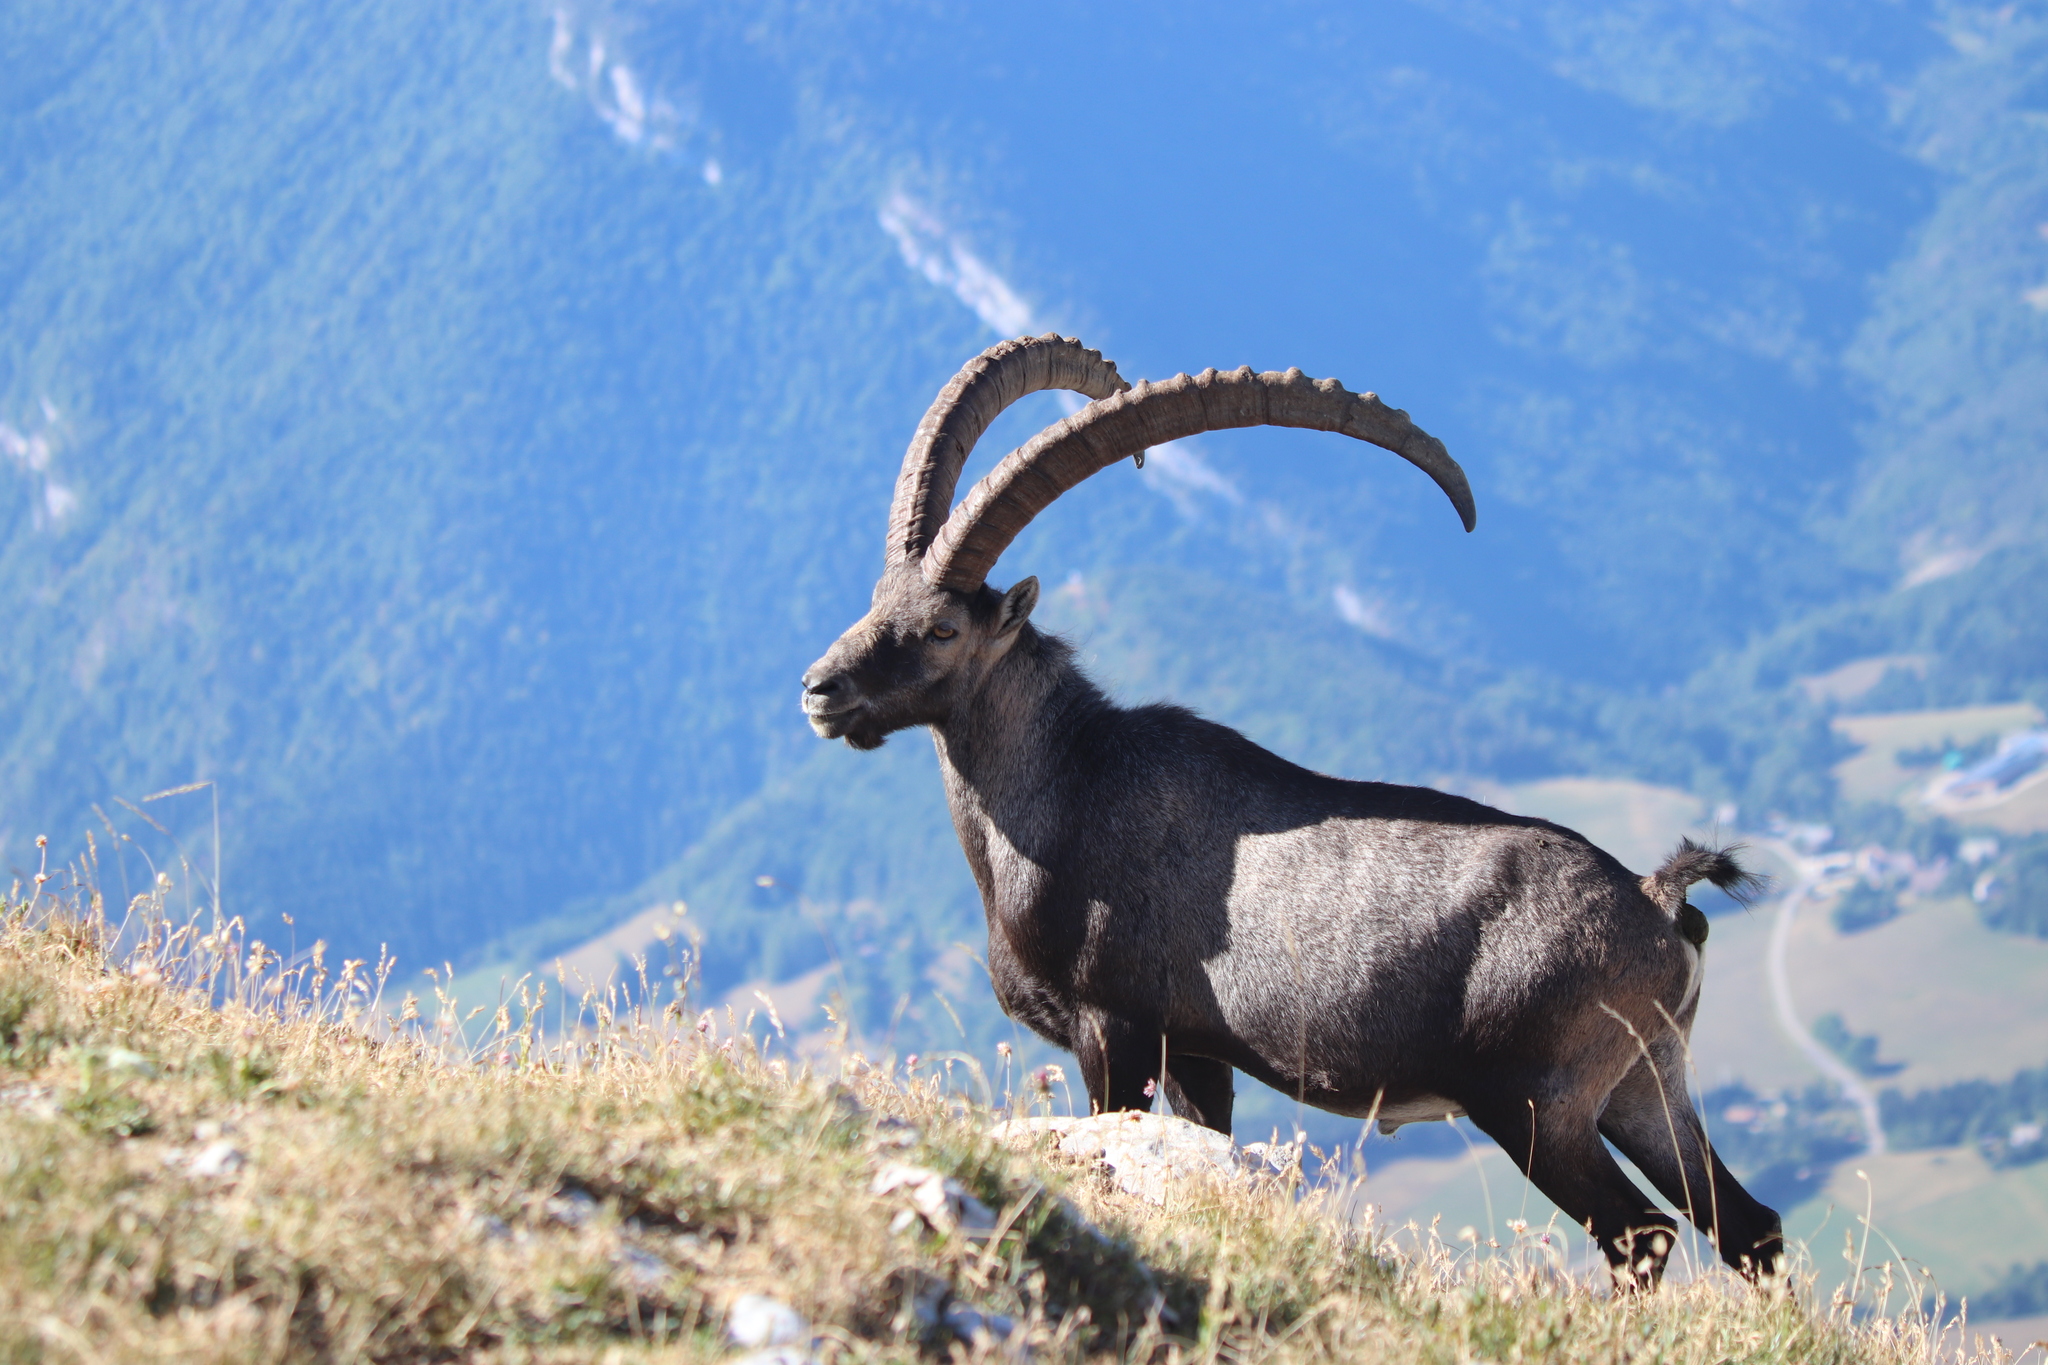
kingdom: Animalia
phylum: Chordata
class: Mammalia
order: Artiodactyla
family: Bovidae
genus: Capra
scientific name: Capra ibex
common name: Alpine ibex
